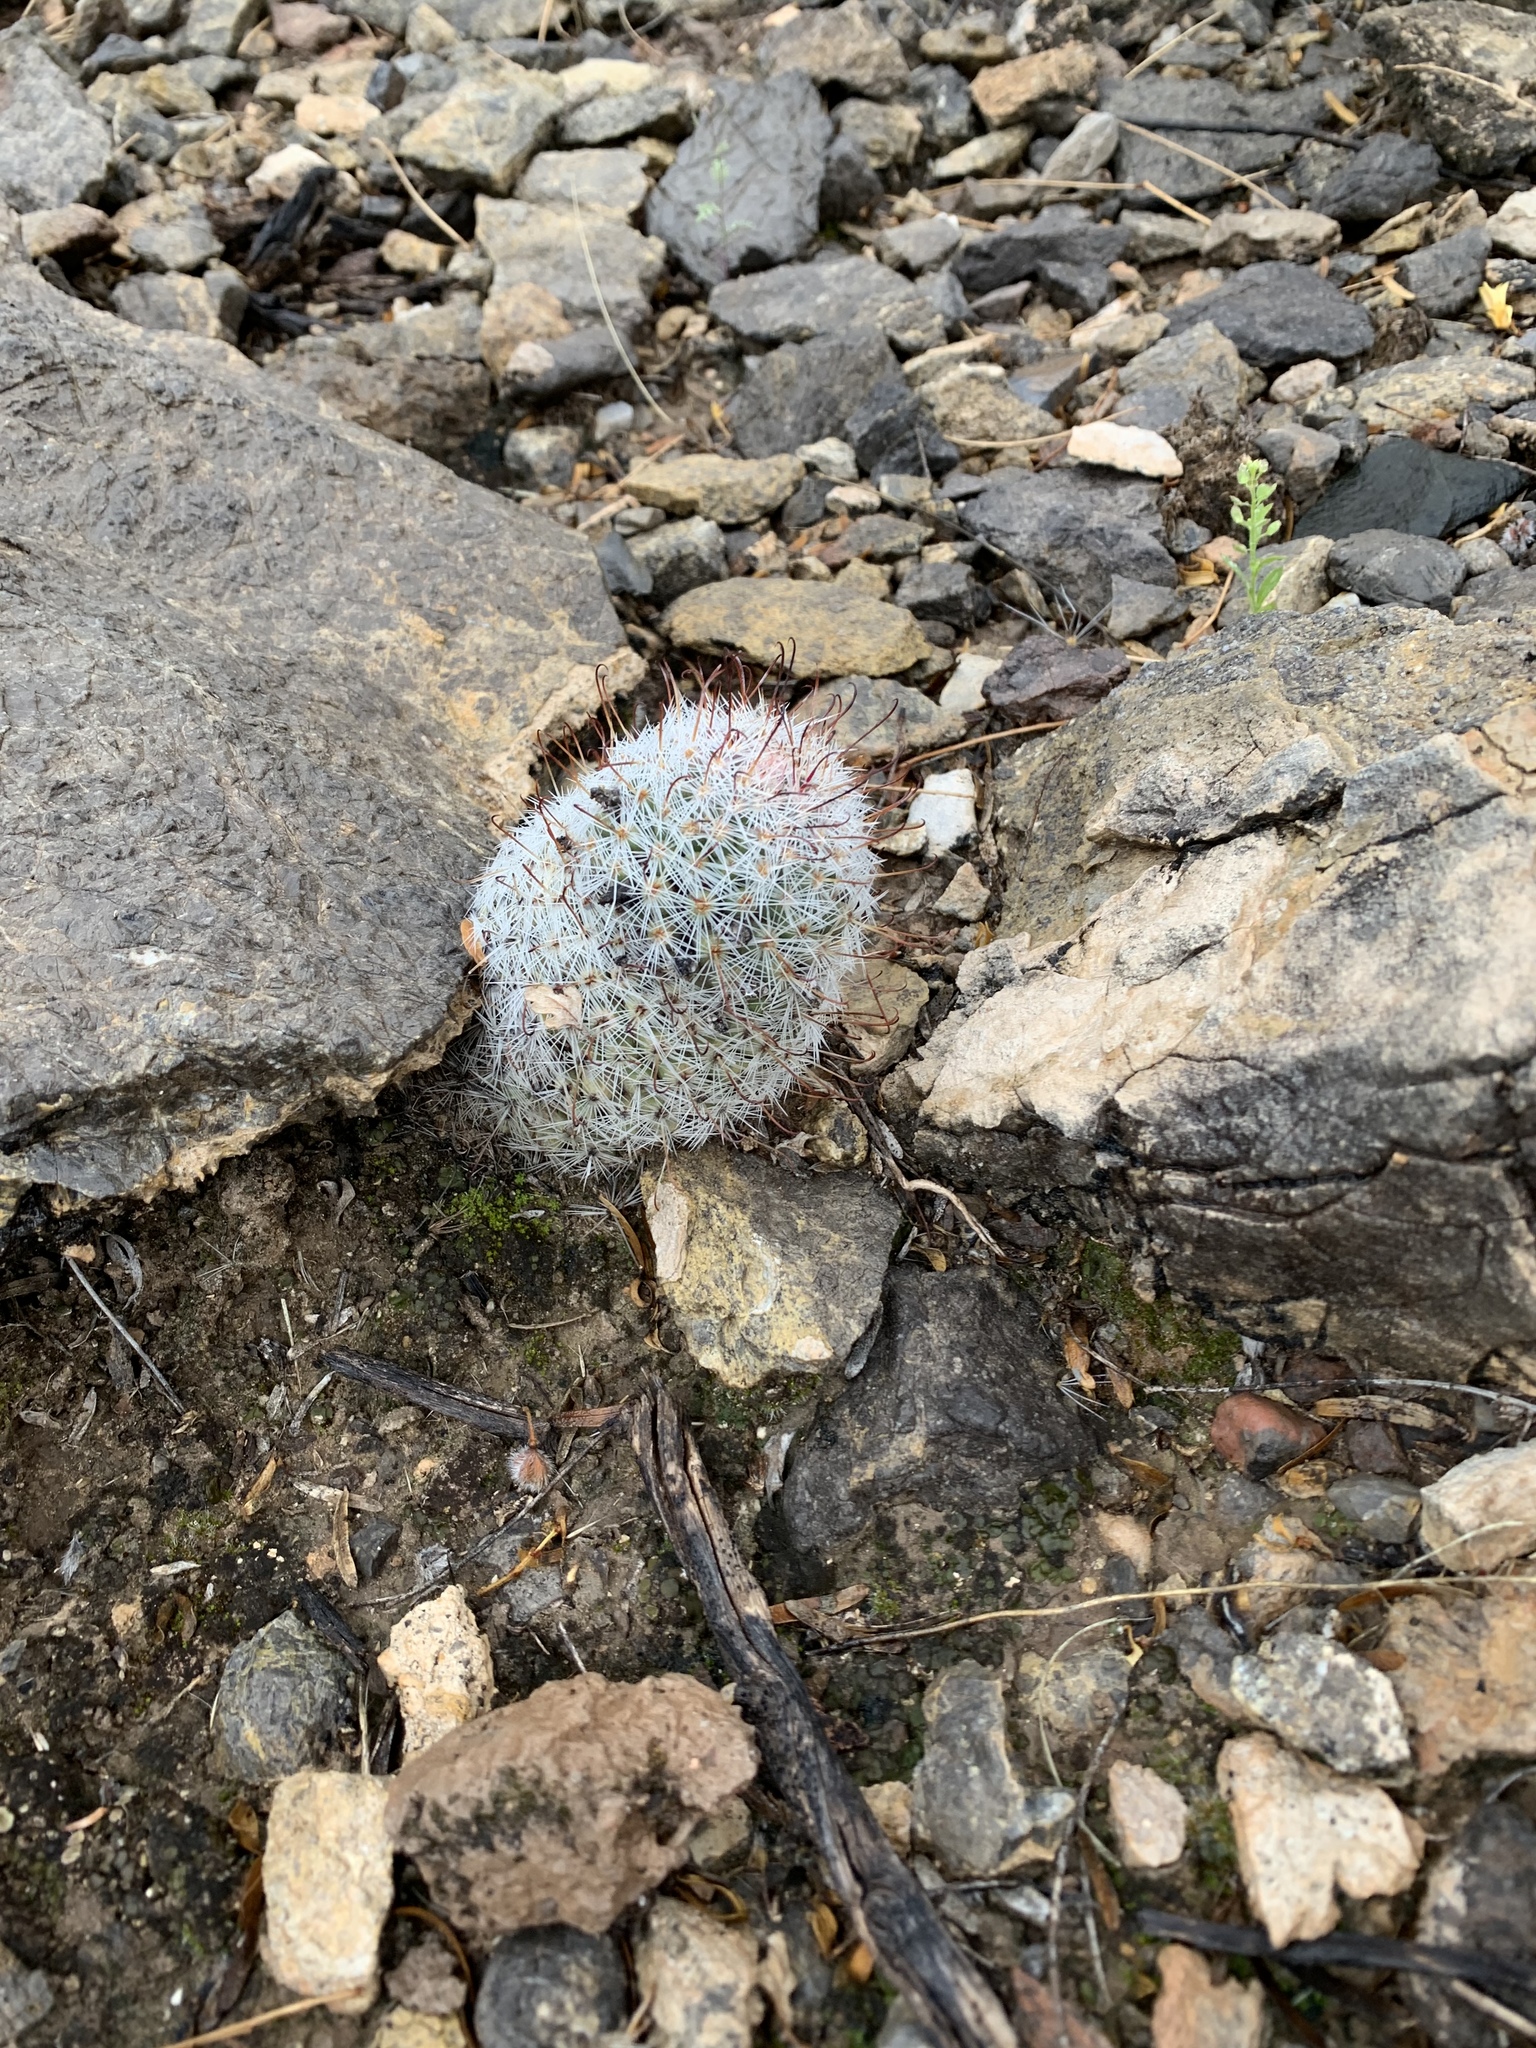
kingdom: Plantae
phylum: Tracheophyta
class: Magnoliopsida
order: Caryophyllales
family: Cactaceae
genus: Cochemiea
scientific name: Cochemiea grahamii
